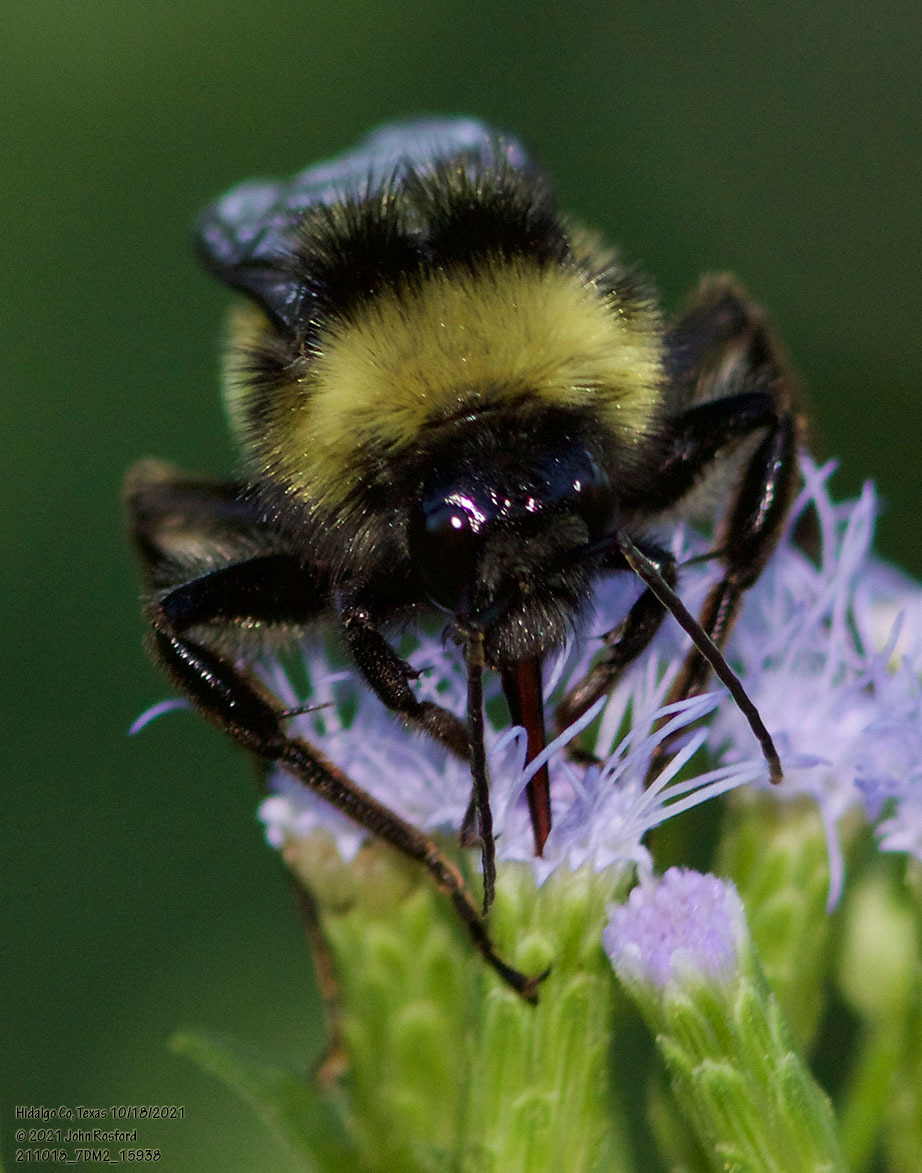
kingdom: Animalia
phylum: Arthropoda
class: Insecta
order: Hymenoptera
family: Apidae
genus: Bombus
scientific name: Bombus pensylvanicus
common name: Bumble bee
